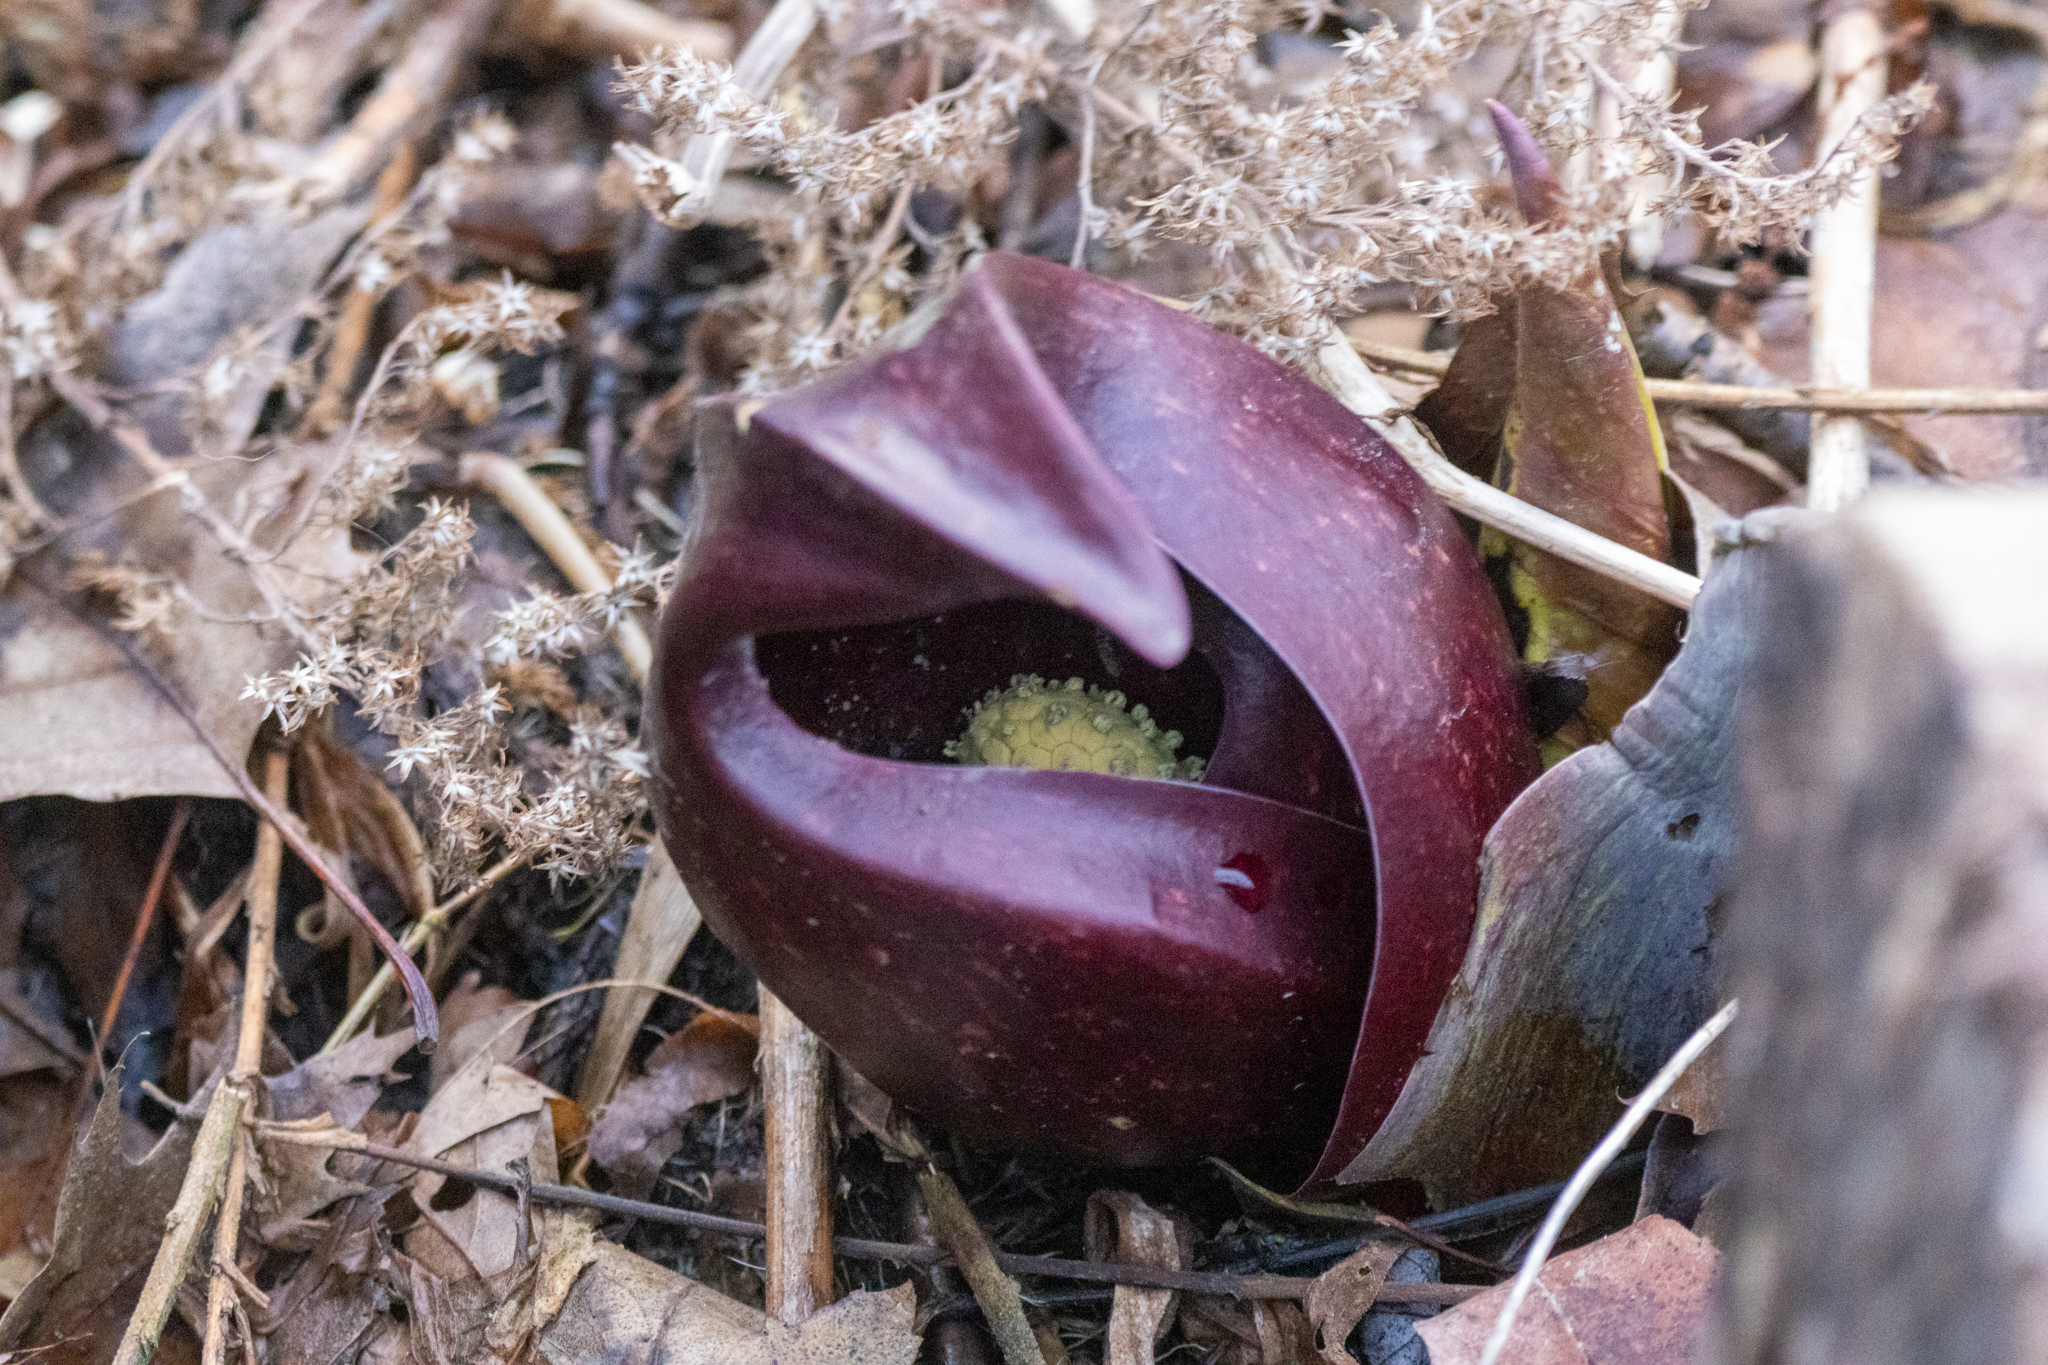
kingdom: Plantae
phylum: Tracheophyta
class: Liliopsida
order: Alismatales
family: Araceae
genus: Symplocarpus
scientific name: Symplocarpus foetidus
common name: Eastern skunk cabbage
